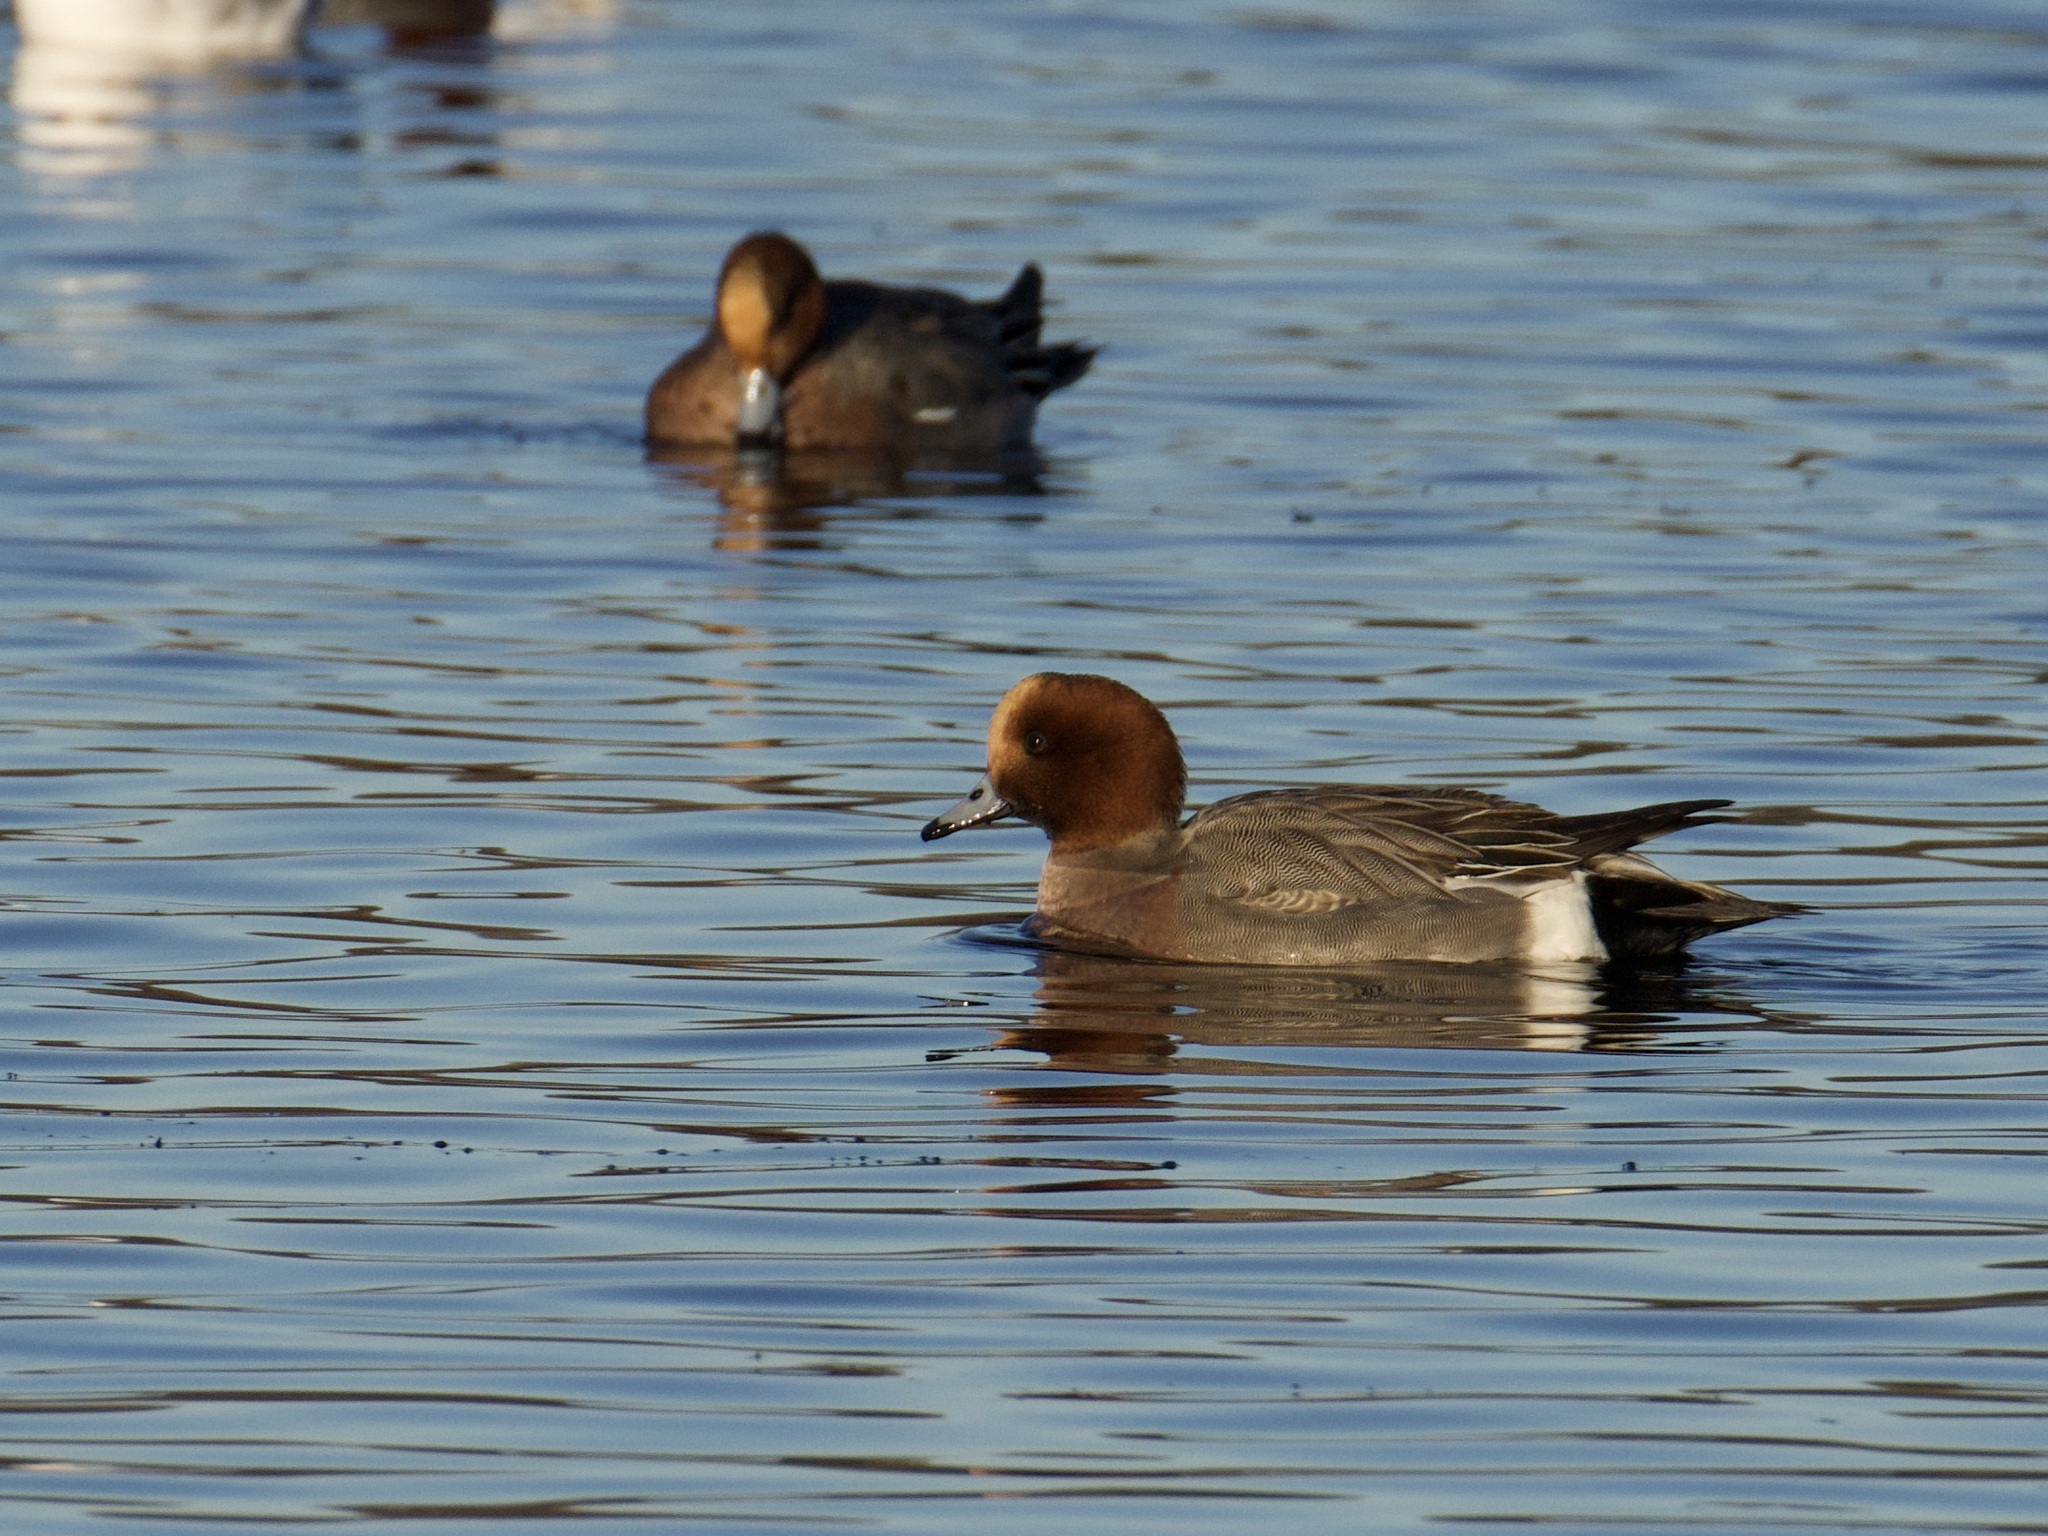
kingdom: Animalia
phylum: Chordata
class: Aves
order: Anseriformes
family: Anatidae
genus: Mareca
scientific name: Mareca penelope
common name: Eurasian wigeon
